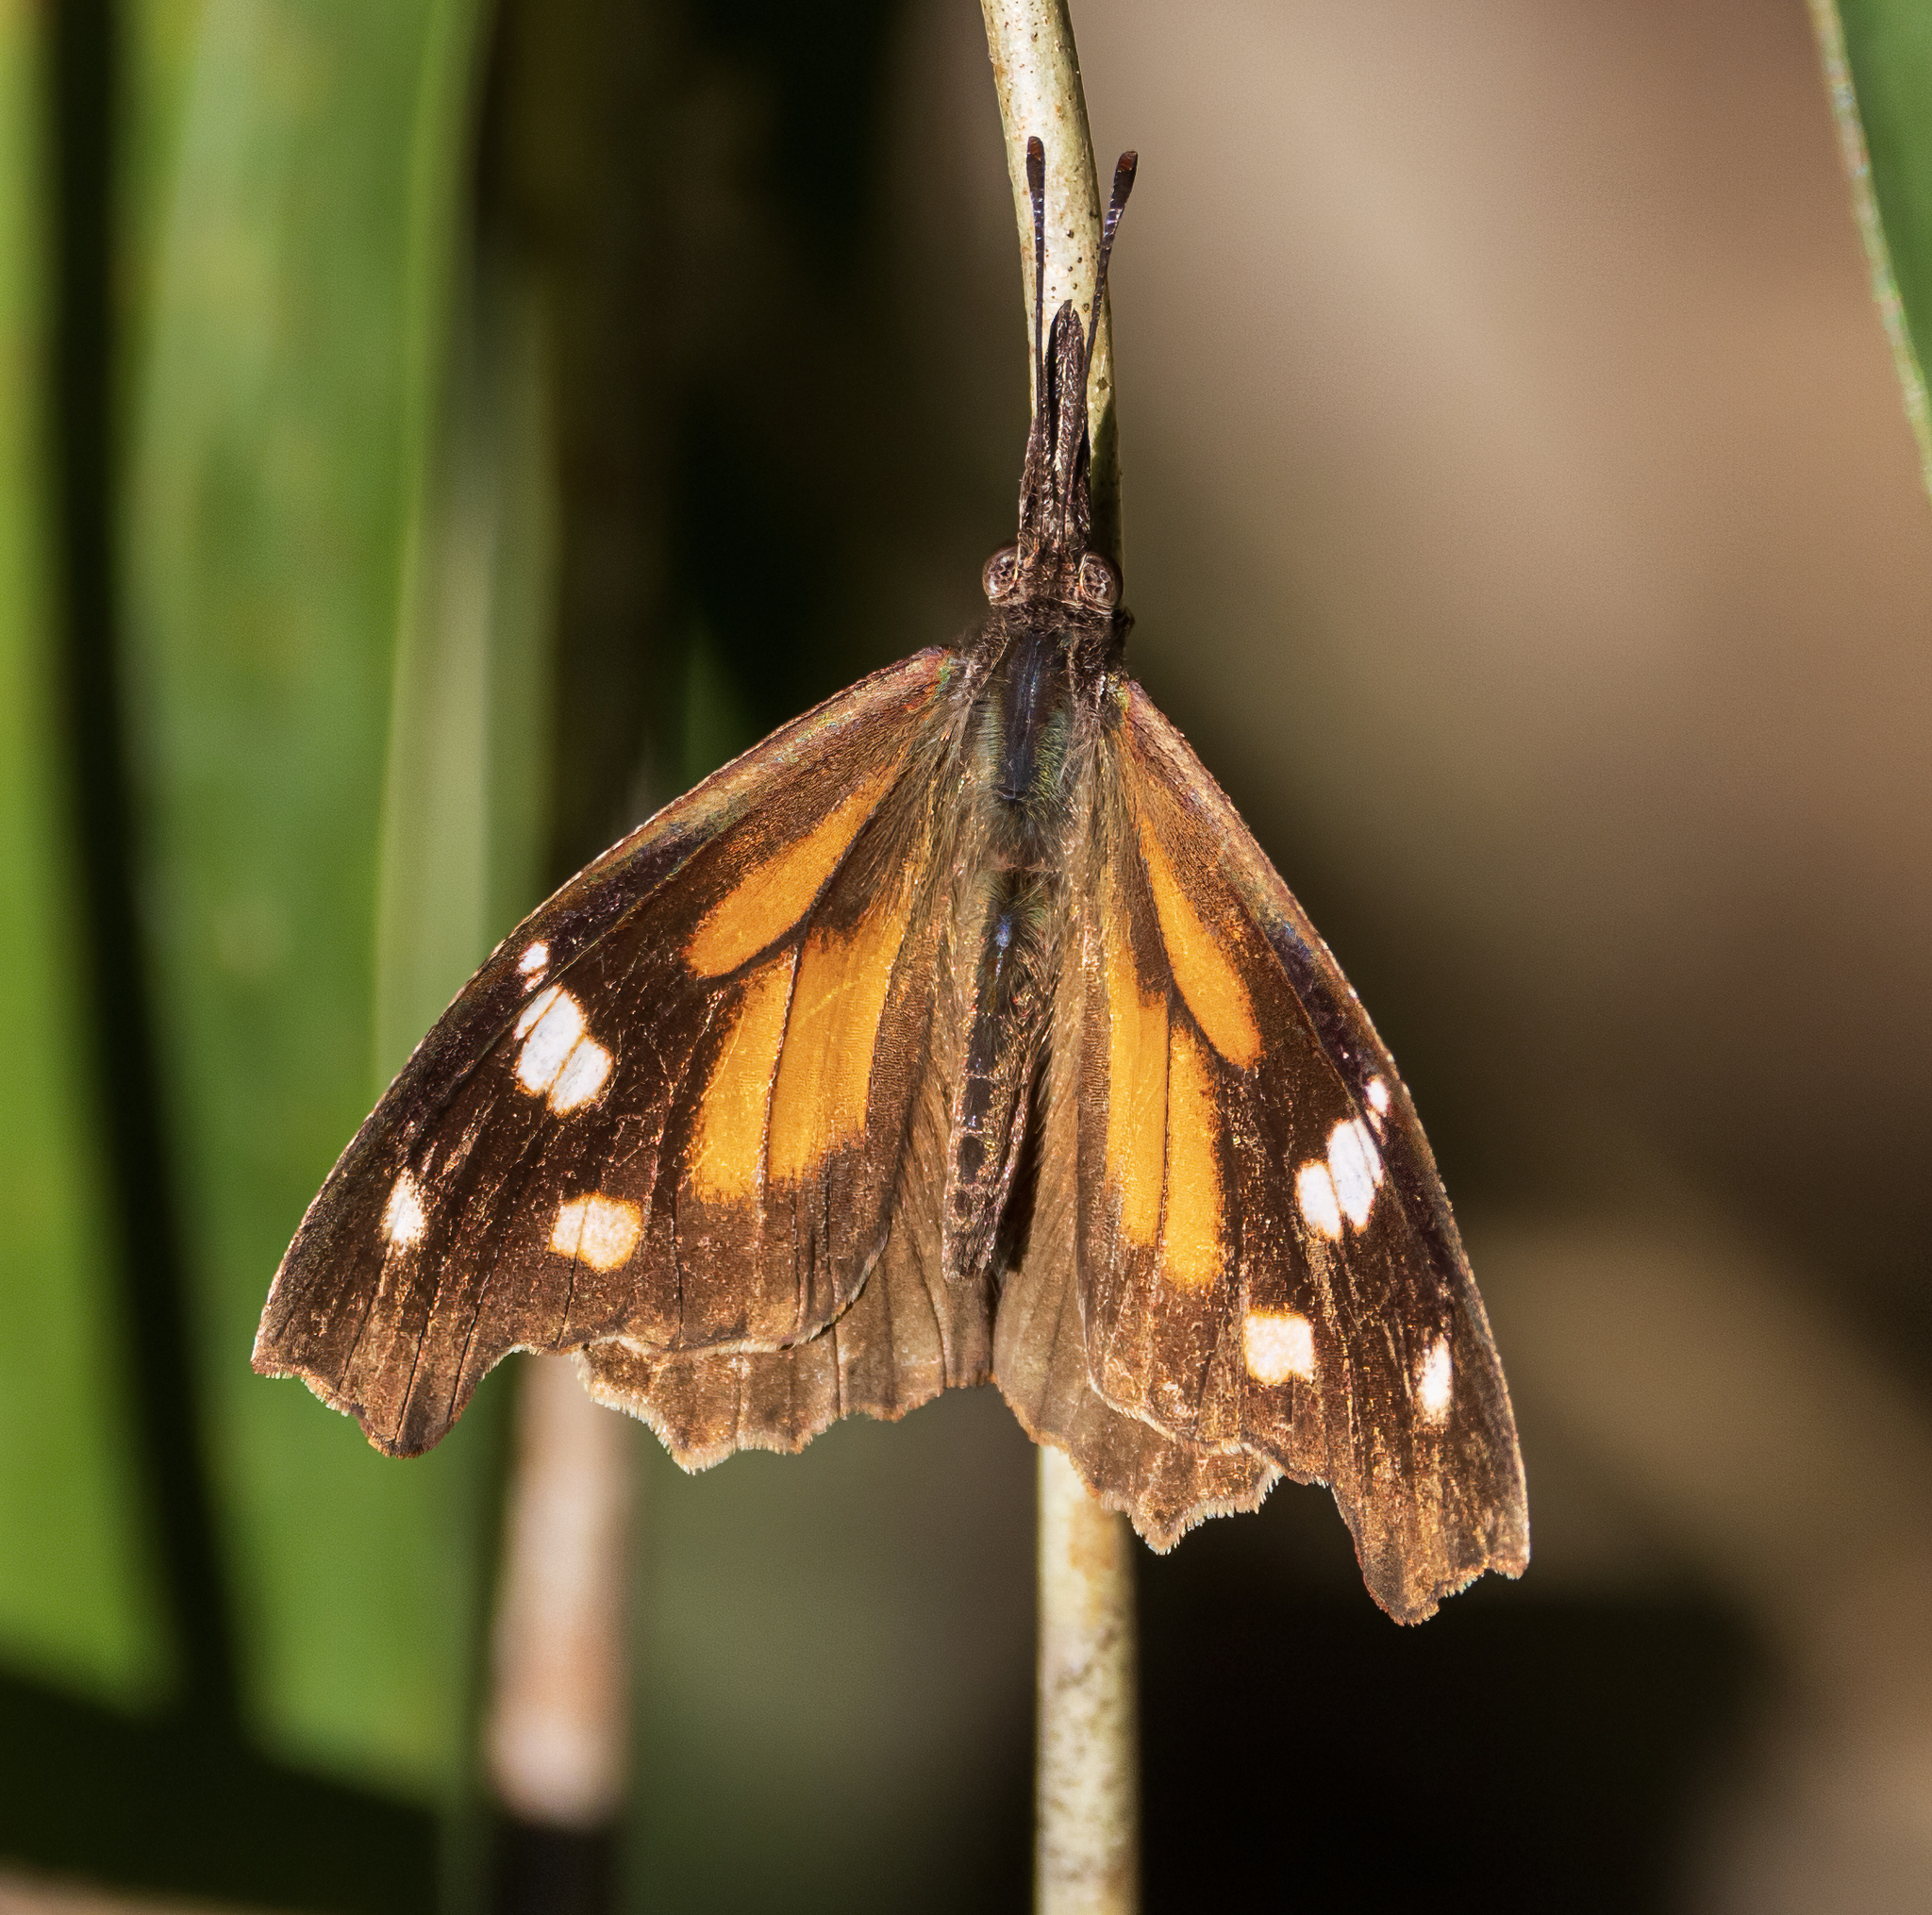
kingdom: Animalia
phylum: Arthropoda
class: Insecta
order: Lepidoptera
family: Nymphalidae
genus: Libytheana
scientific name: Libytheana carinenta
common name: American snout
